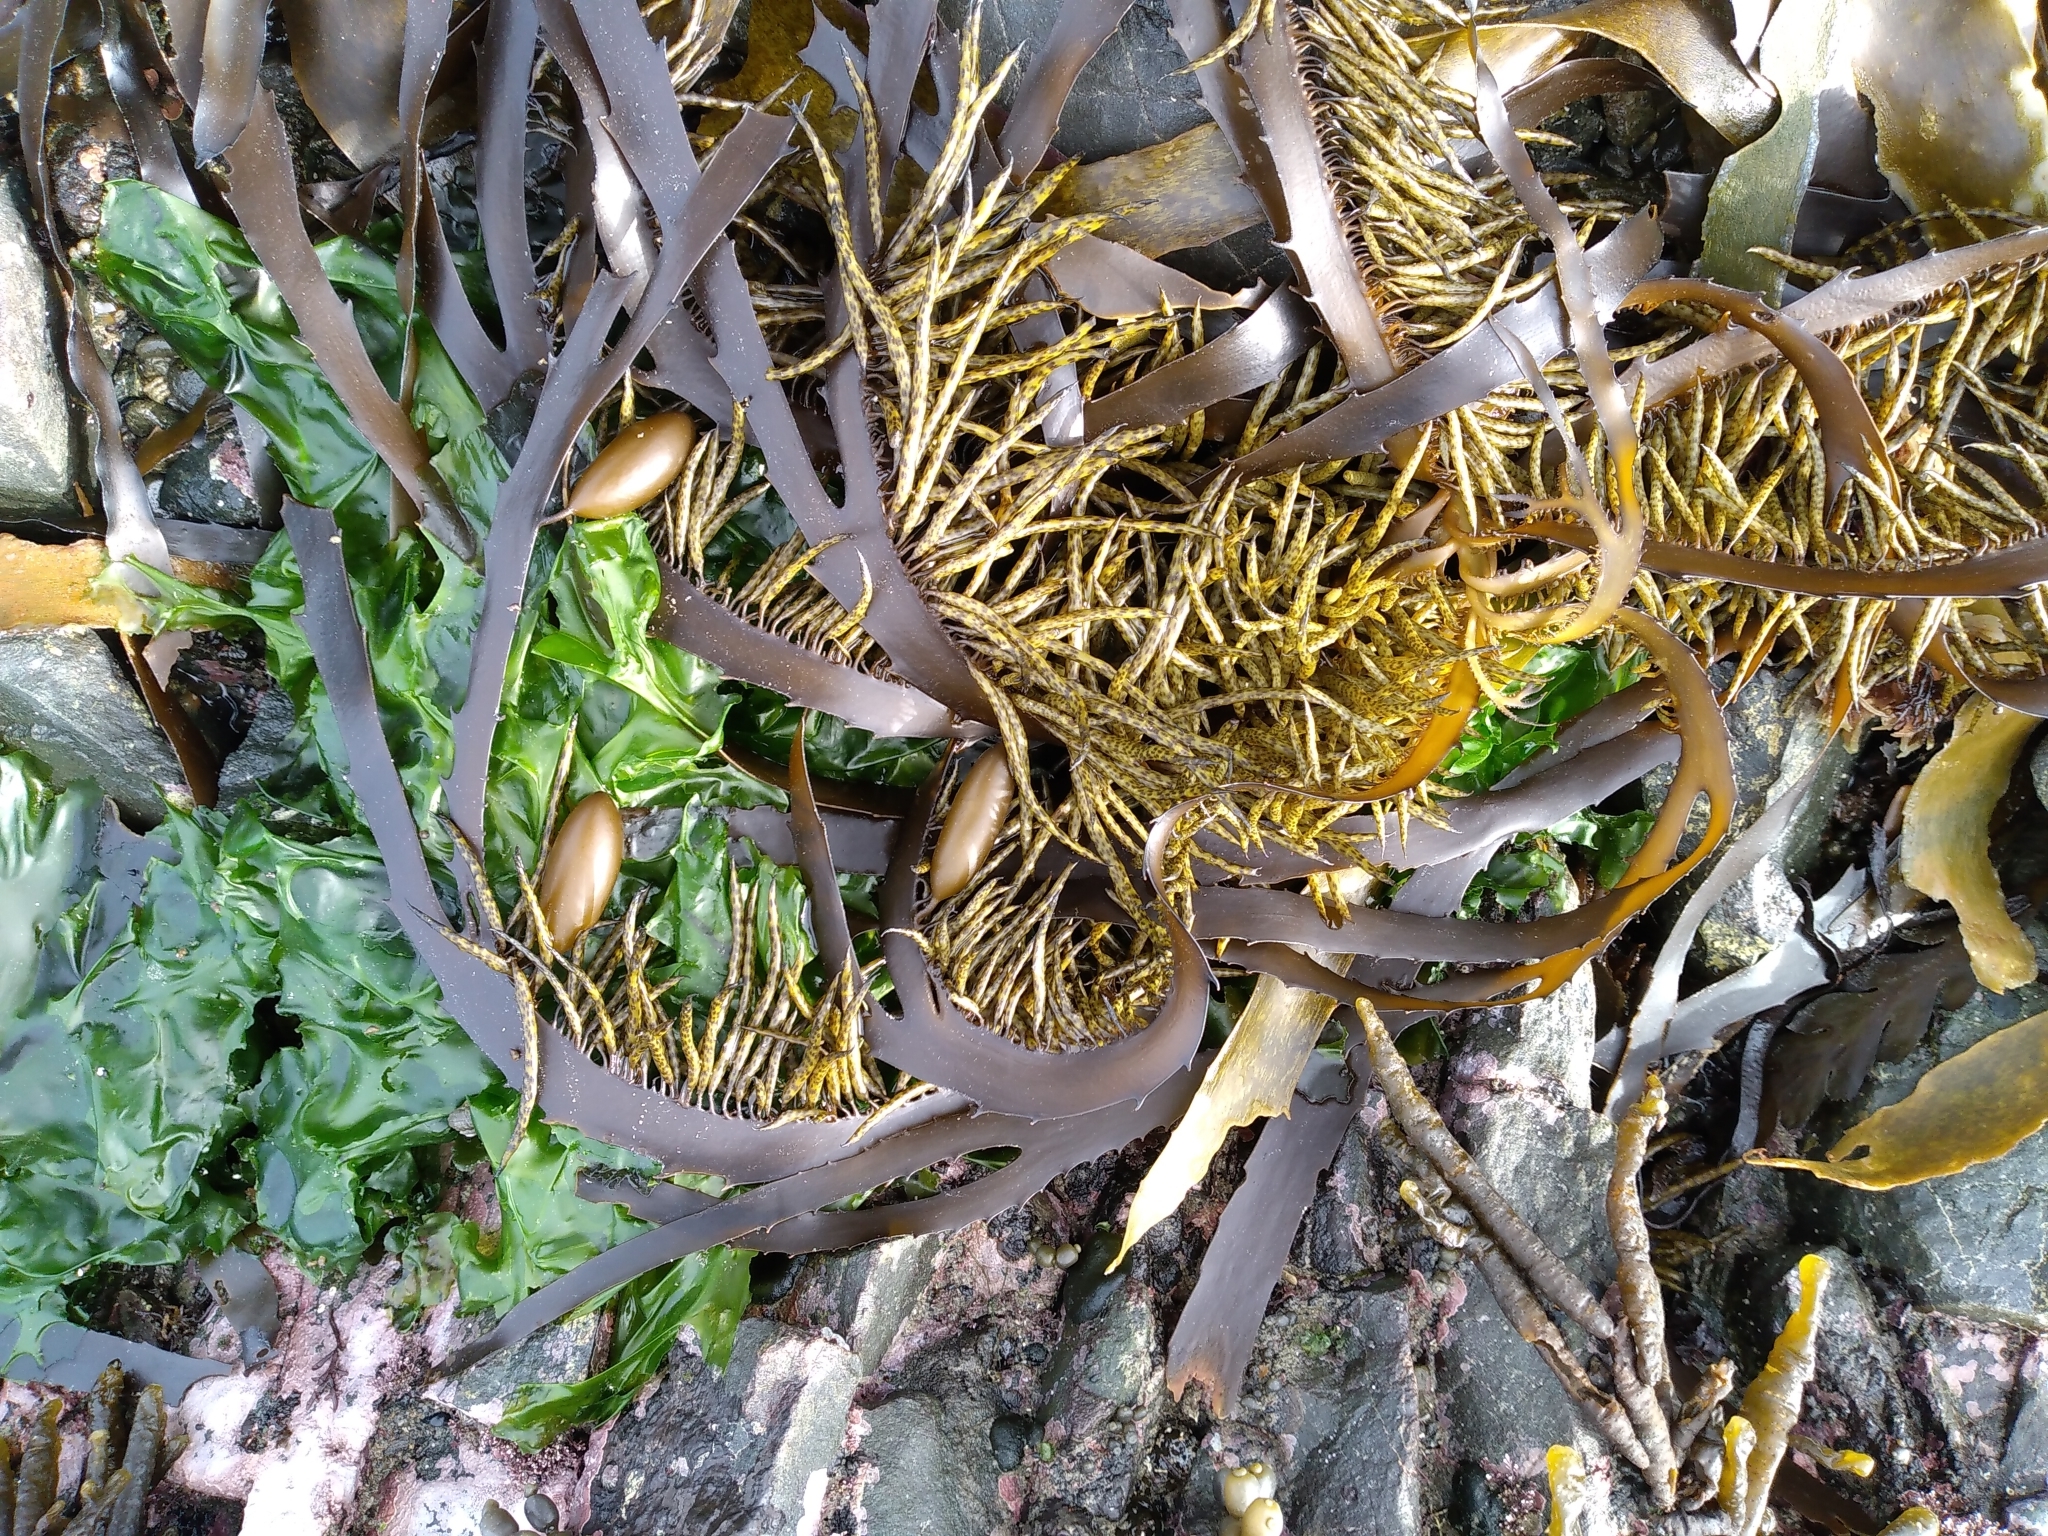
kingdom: Chromista
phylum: Ochrophyta
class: Phaeophyceae
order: Fucales
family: Seirococcaceae
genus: Marginariella
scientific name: Marginariella boryana
